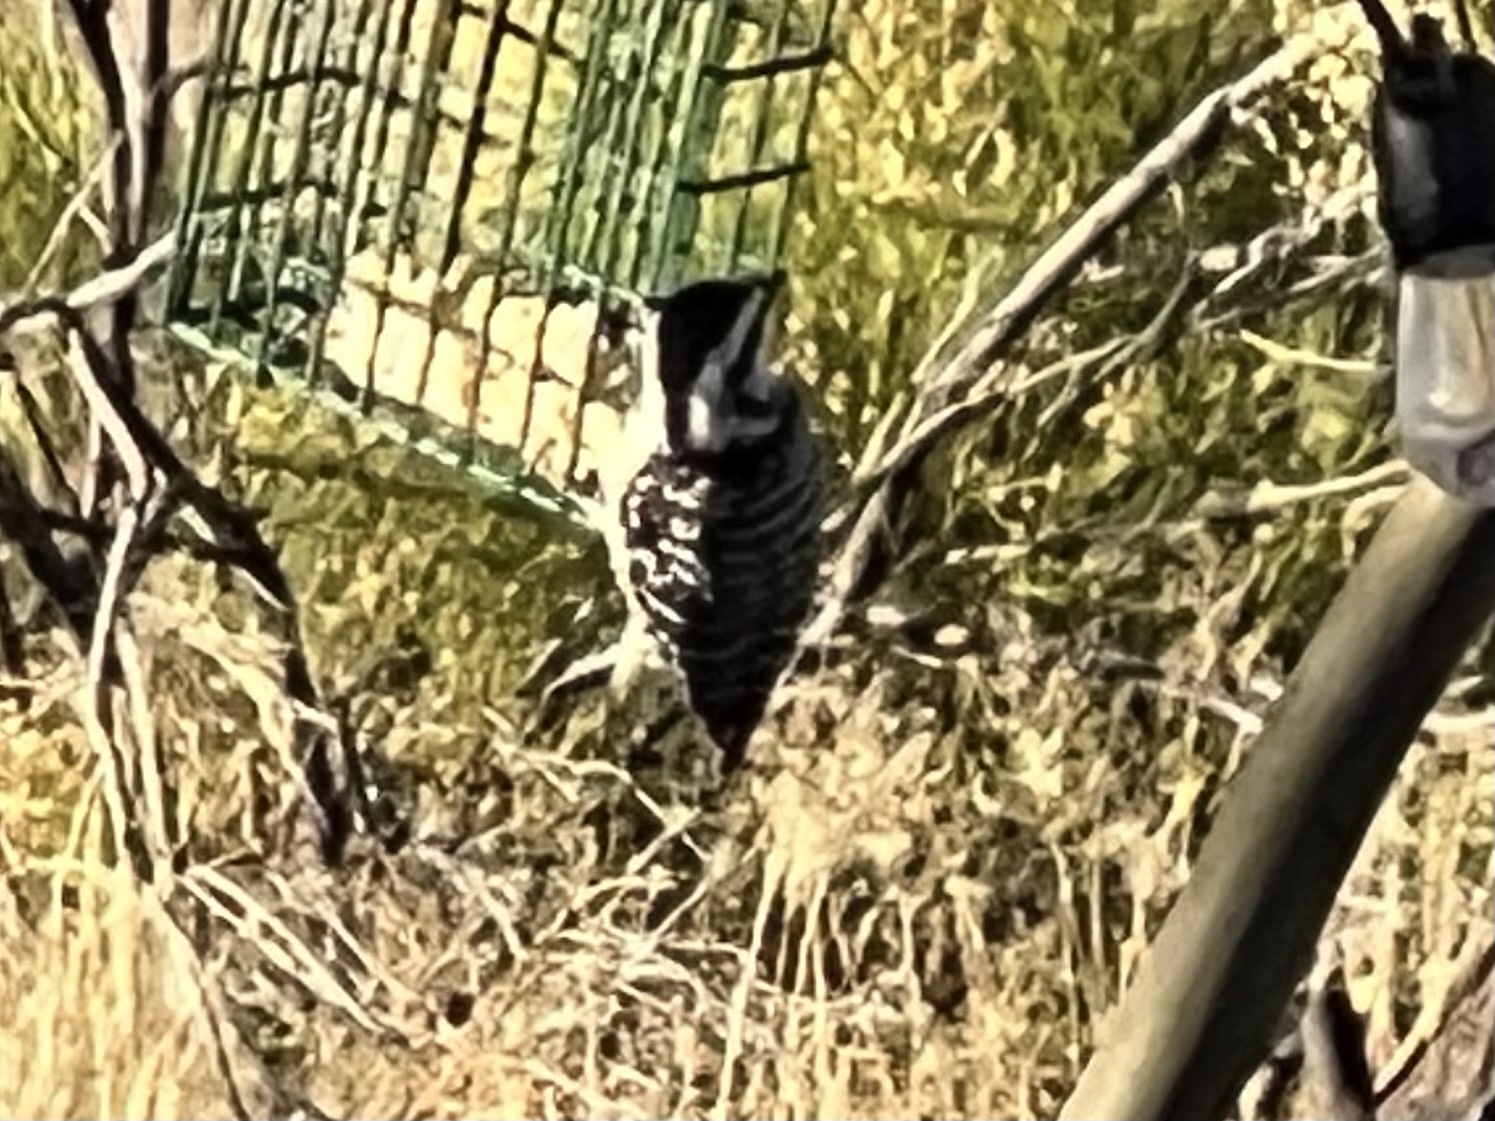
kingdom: Animalia
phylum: Chordata
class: Aves
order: Piciformes
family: Picidae
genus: Dryobates
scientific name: Dryobates scalaris
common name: Ladder-backed woodpecker
